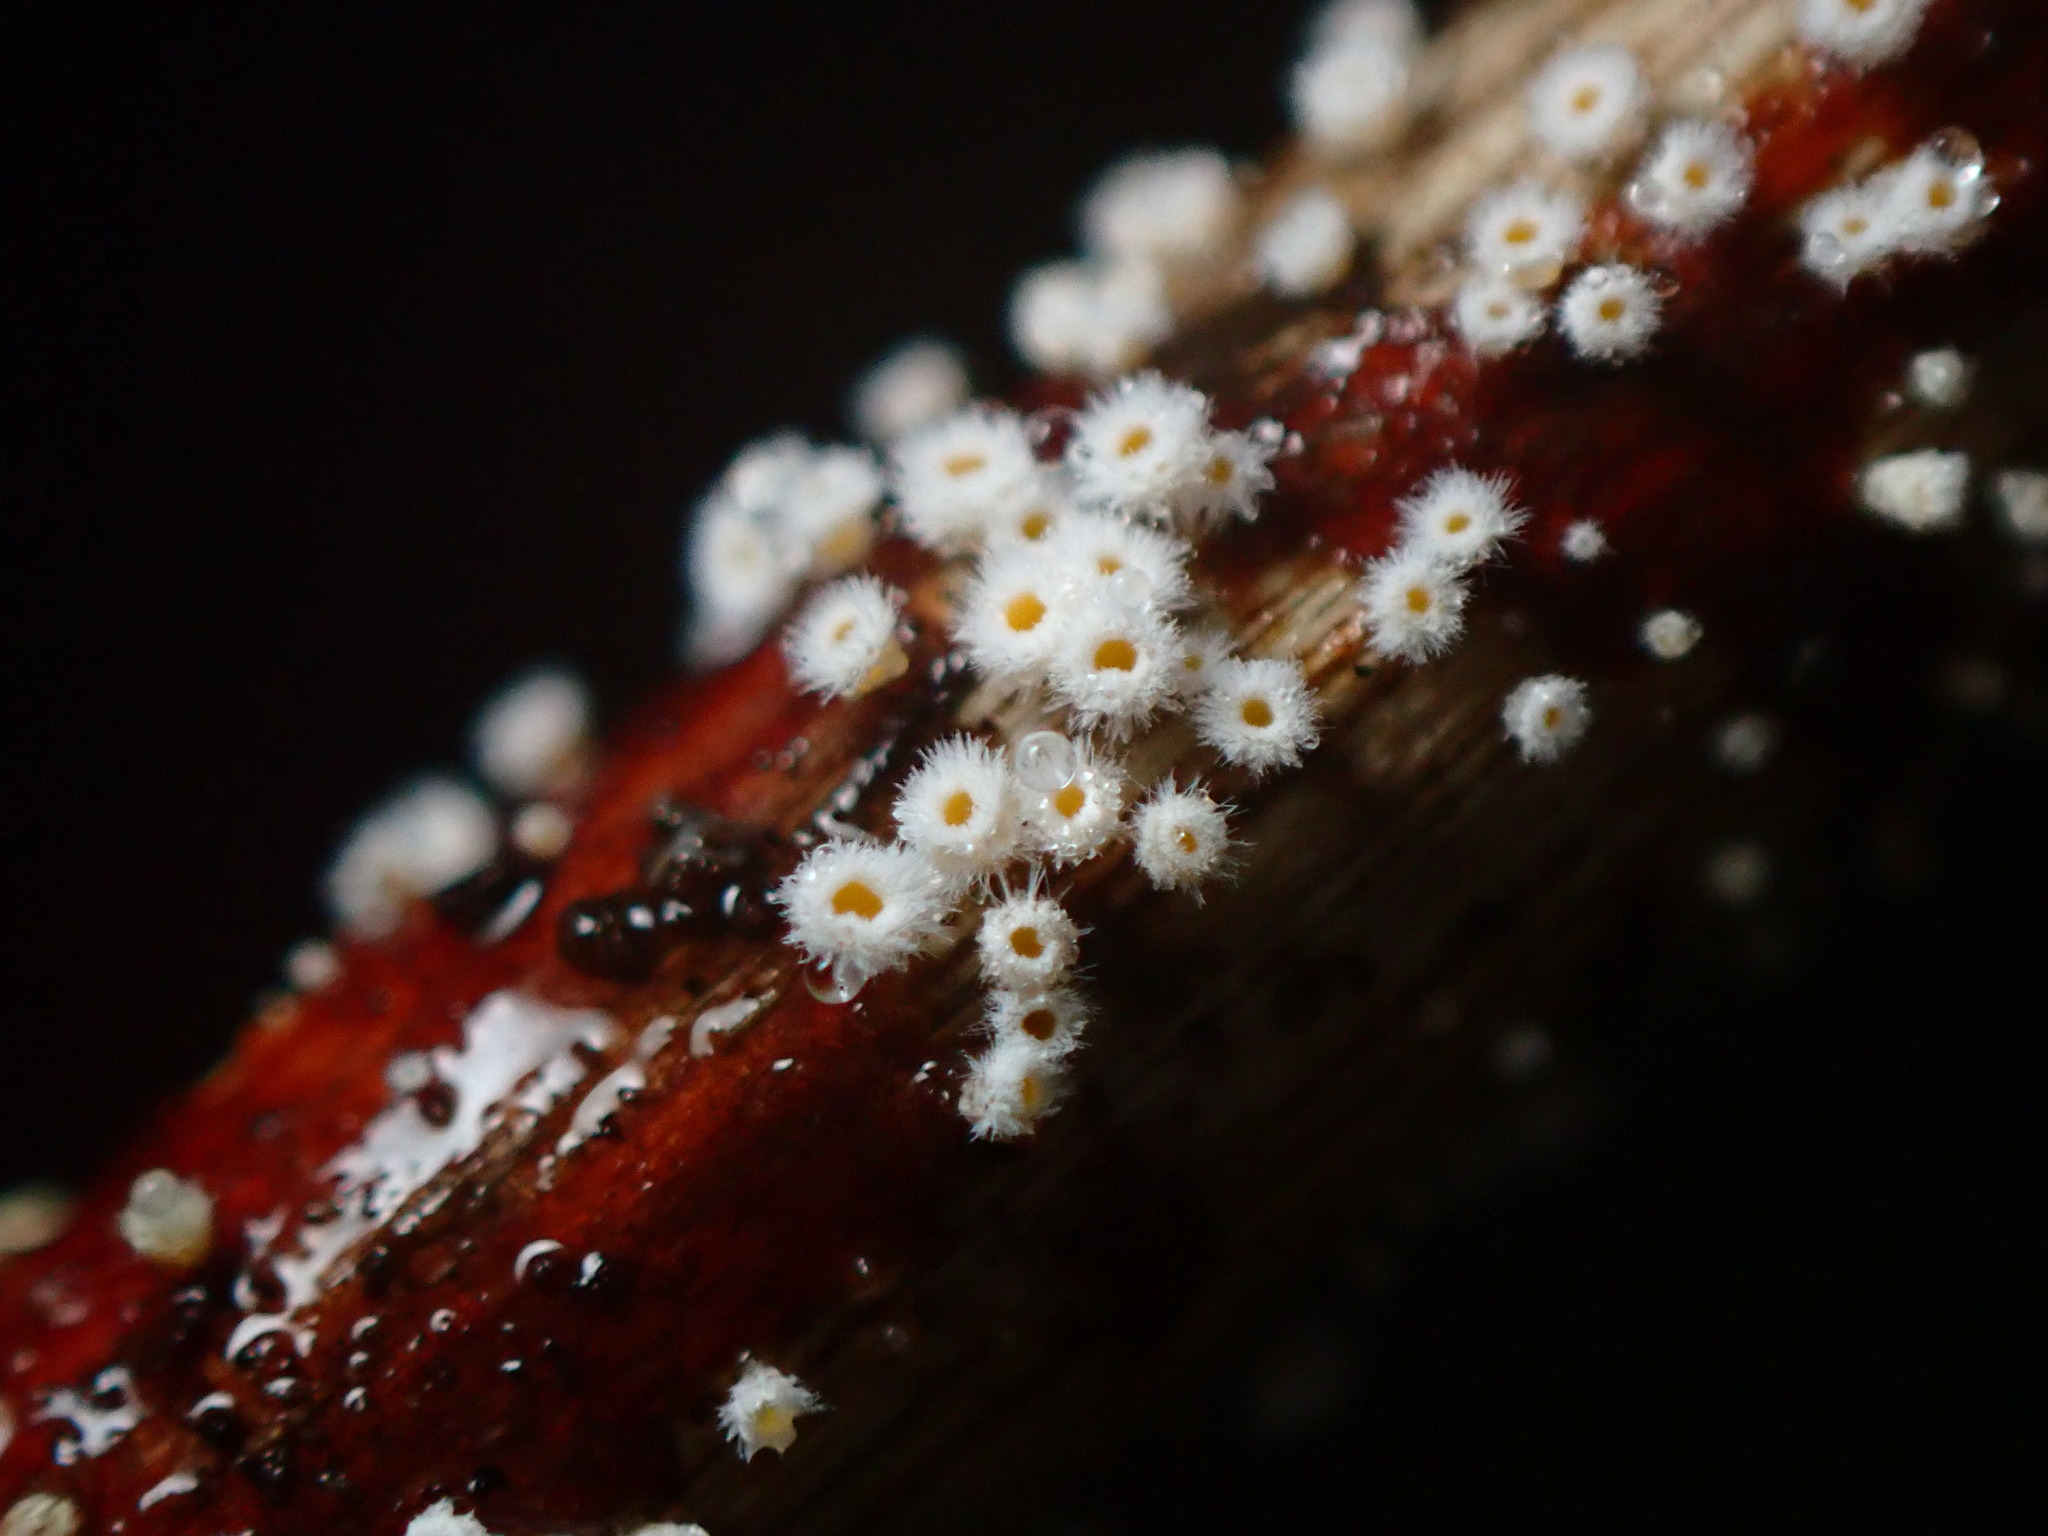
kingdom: Fungi
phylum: Ascomycota
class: Leotiomycetes
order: Helotiales
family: Lachnaceae
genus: Capitotricha
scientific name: Capitotricha bicolor
